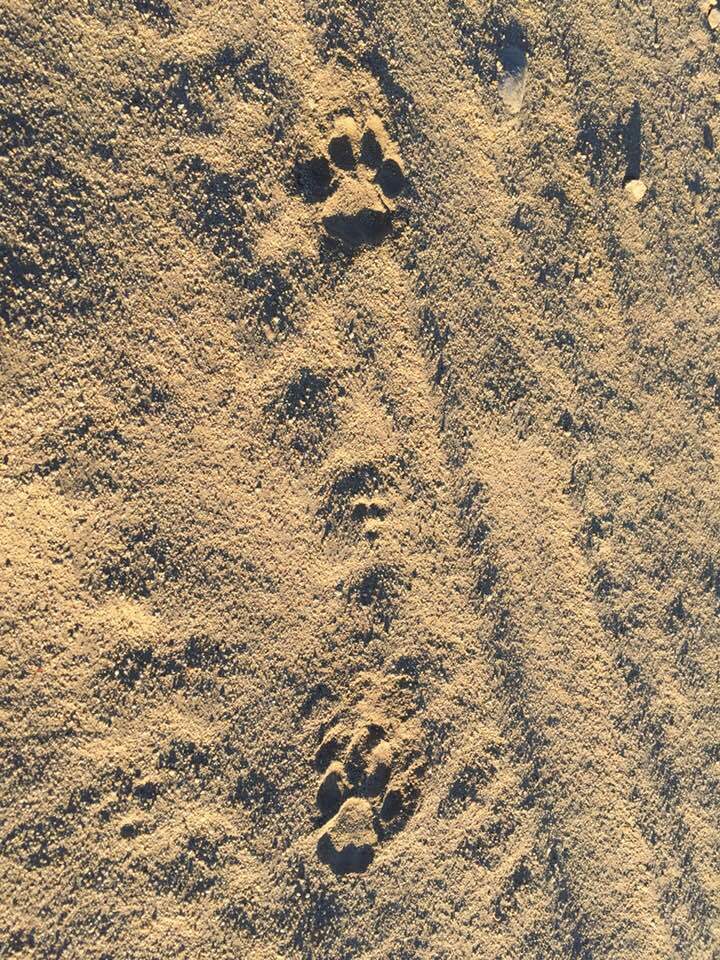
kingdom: Animalia
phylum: Chordata
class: Mammalia
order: Carnivora
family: Felidae
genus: Puma
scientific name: Puma concolor
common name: Puma
